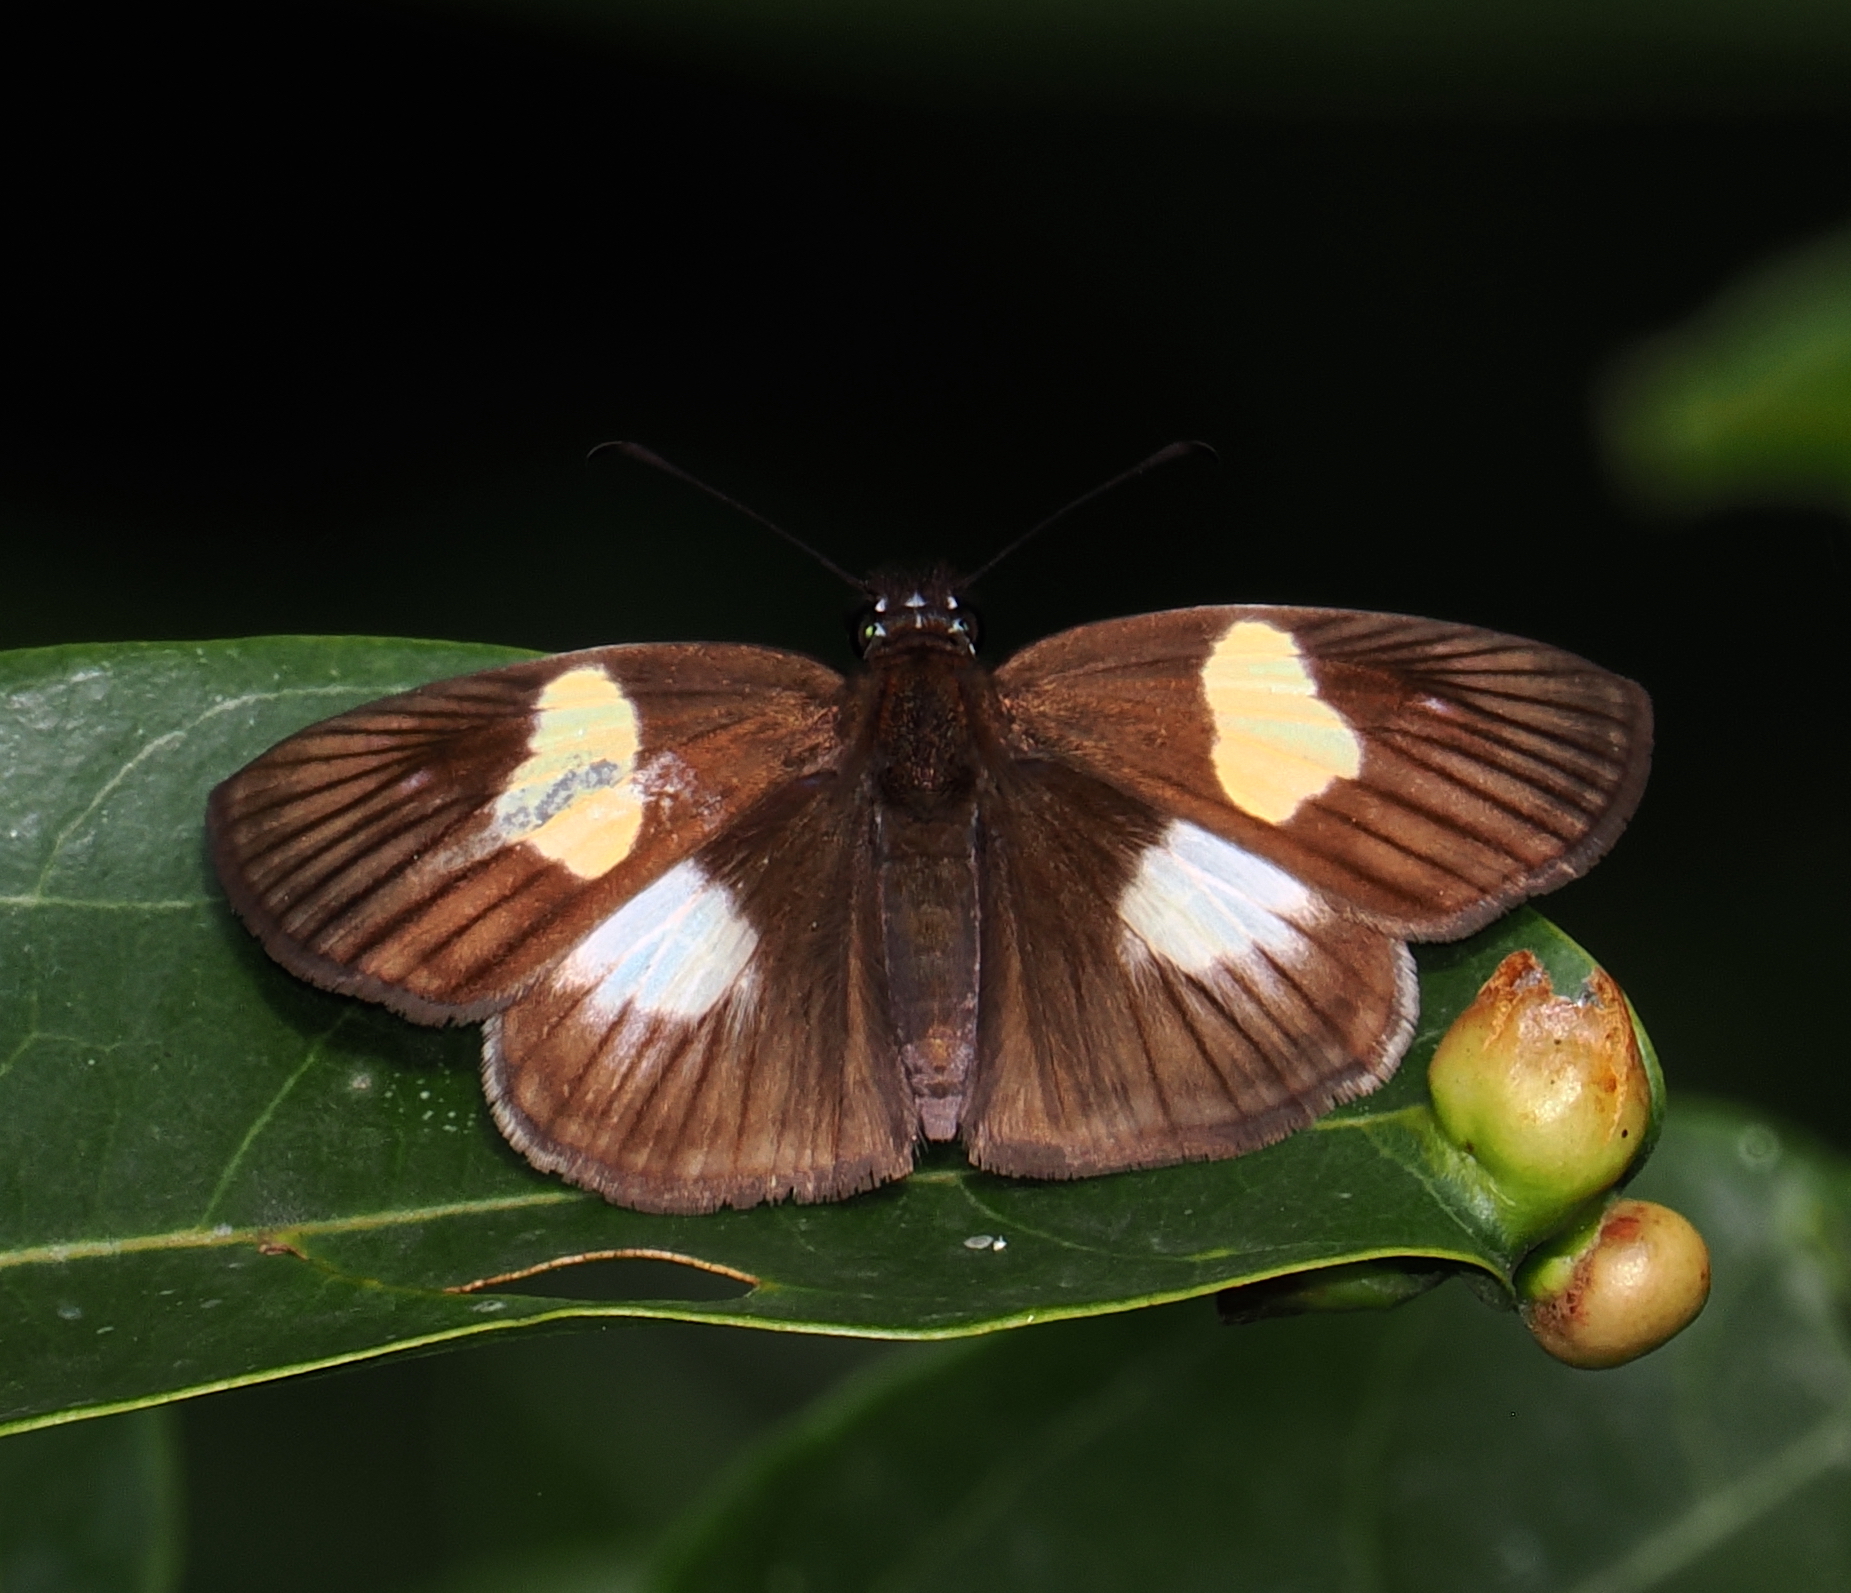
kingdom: Animalia
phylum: Arthropoda
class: Insecta
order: Lepidoptera
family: Hesperiidae
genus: Potamanaxas
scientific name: Potamanaxas hirta
